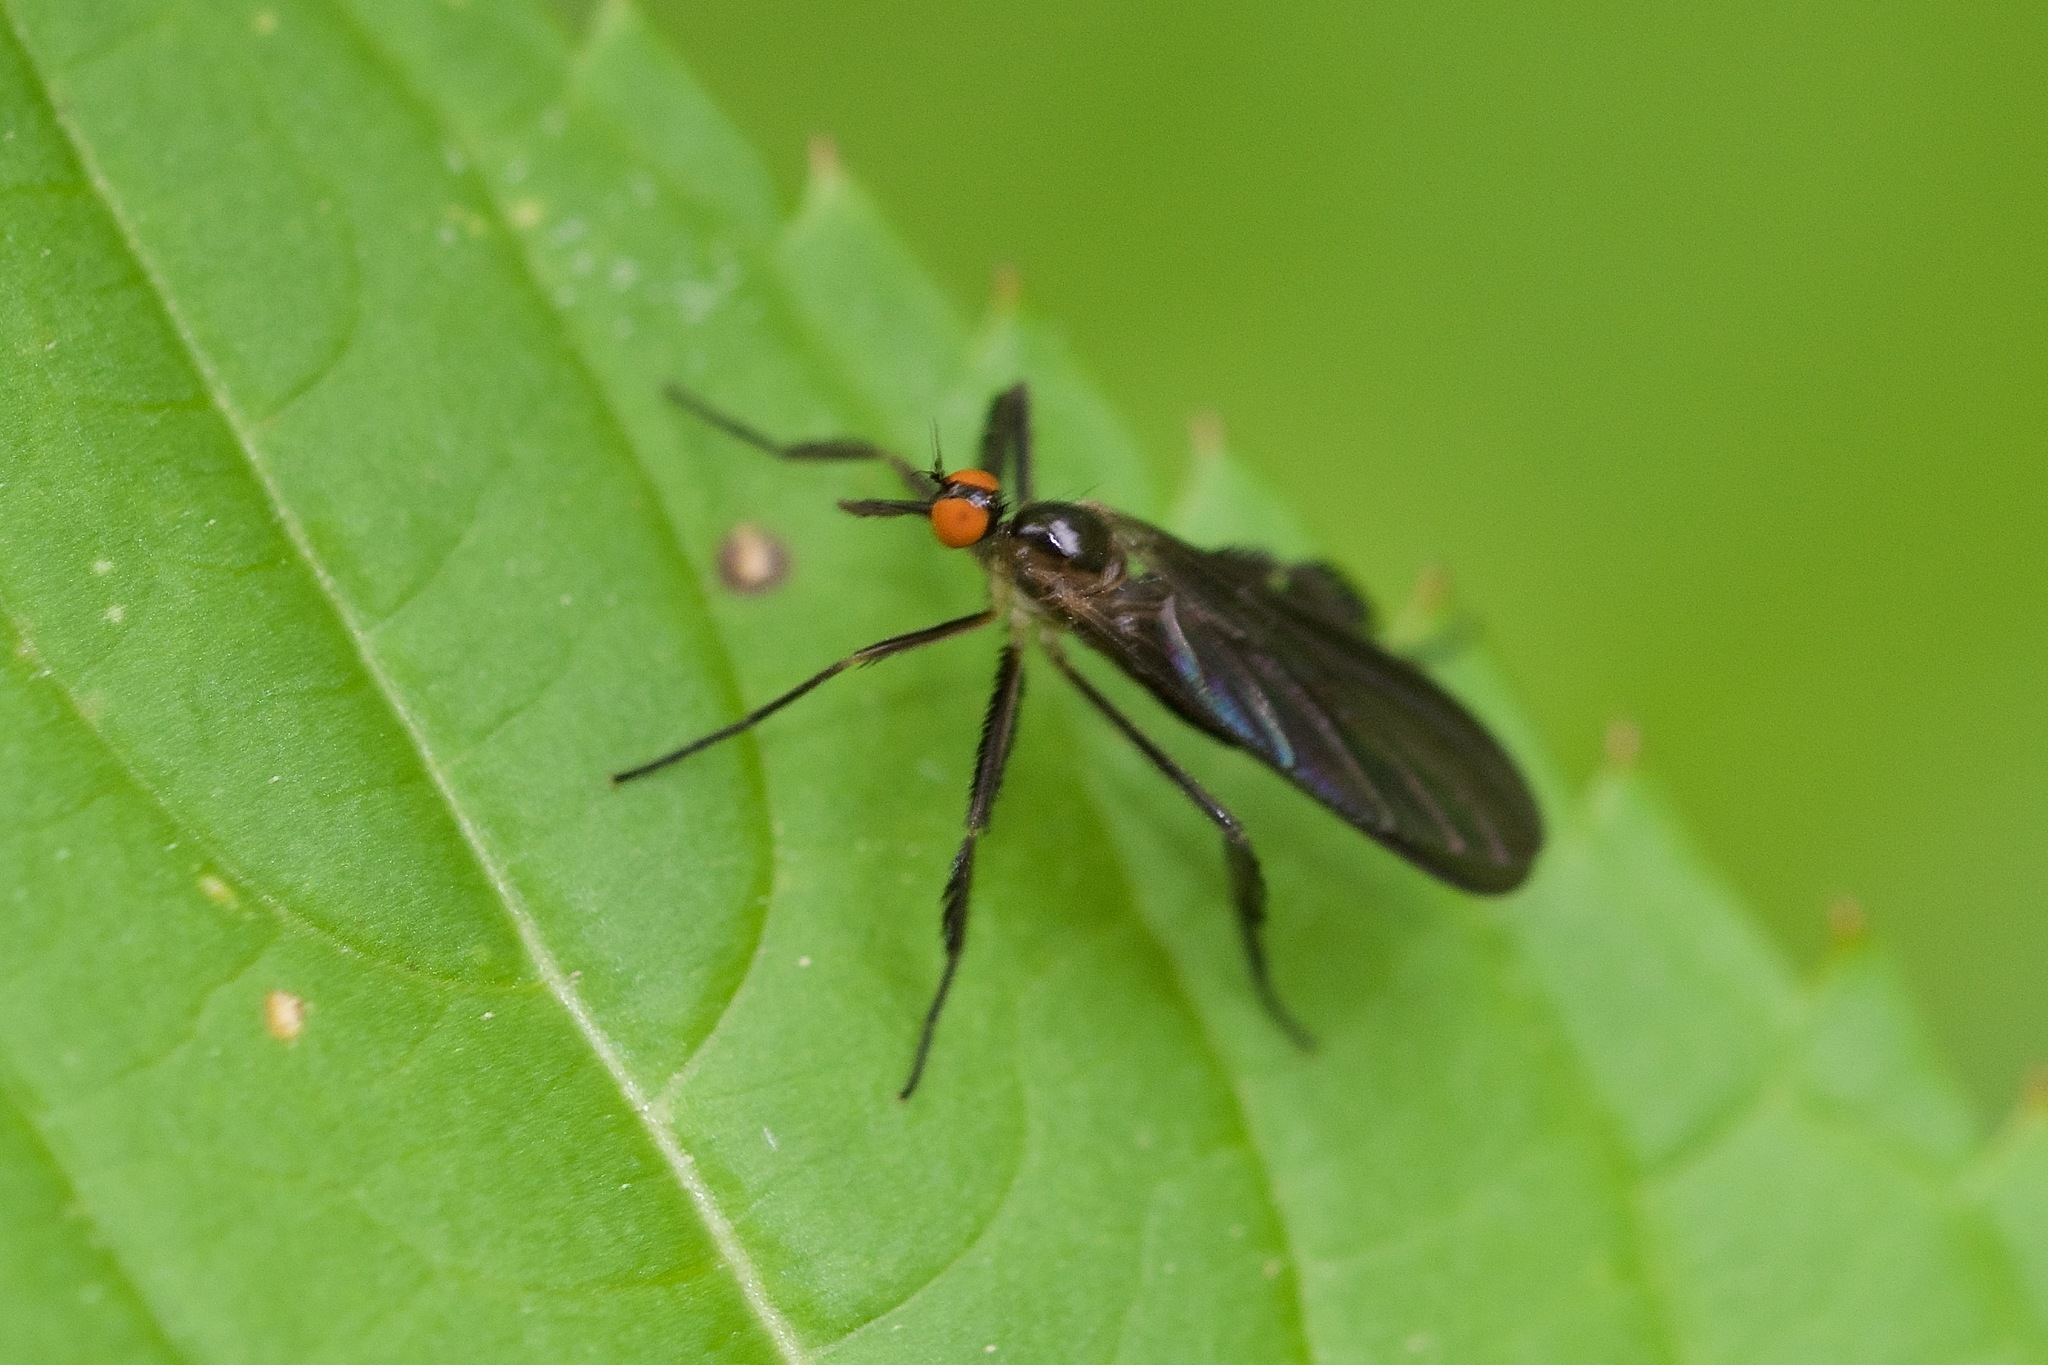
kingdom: Animalia
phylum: Arthropoda
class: Insecta
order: Diptera
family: Empididae
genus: Rhamphomyia
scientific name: Rhamphomyia longicauda
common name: Long-tailed dance fly
